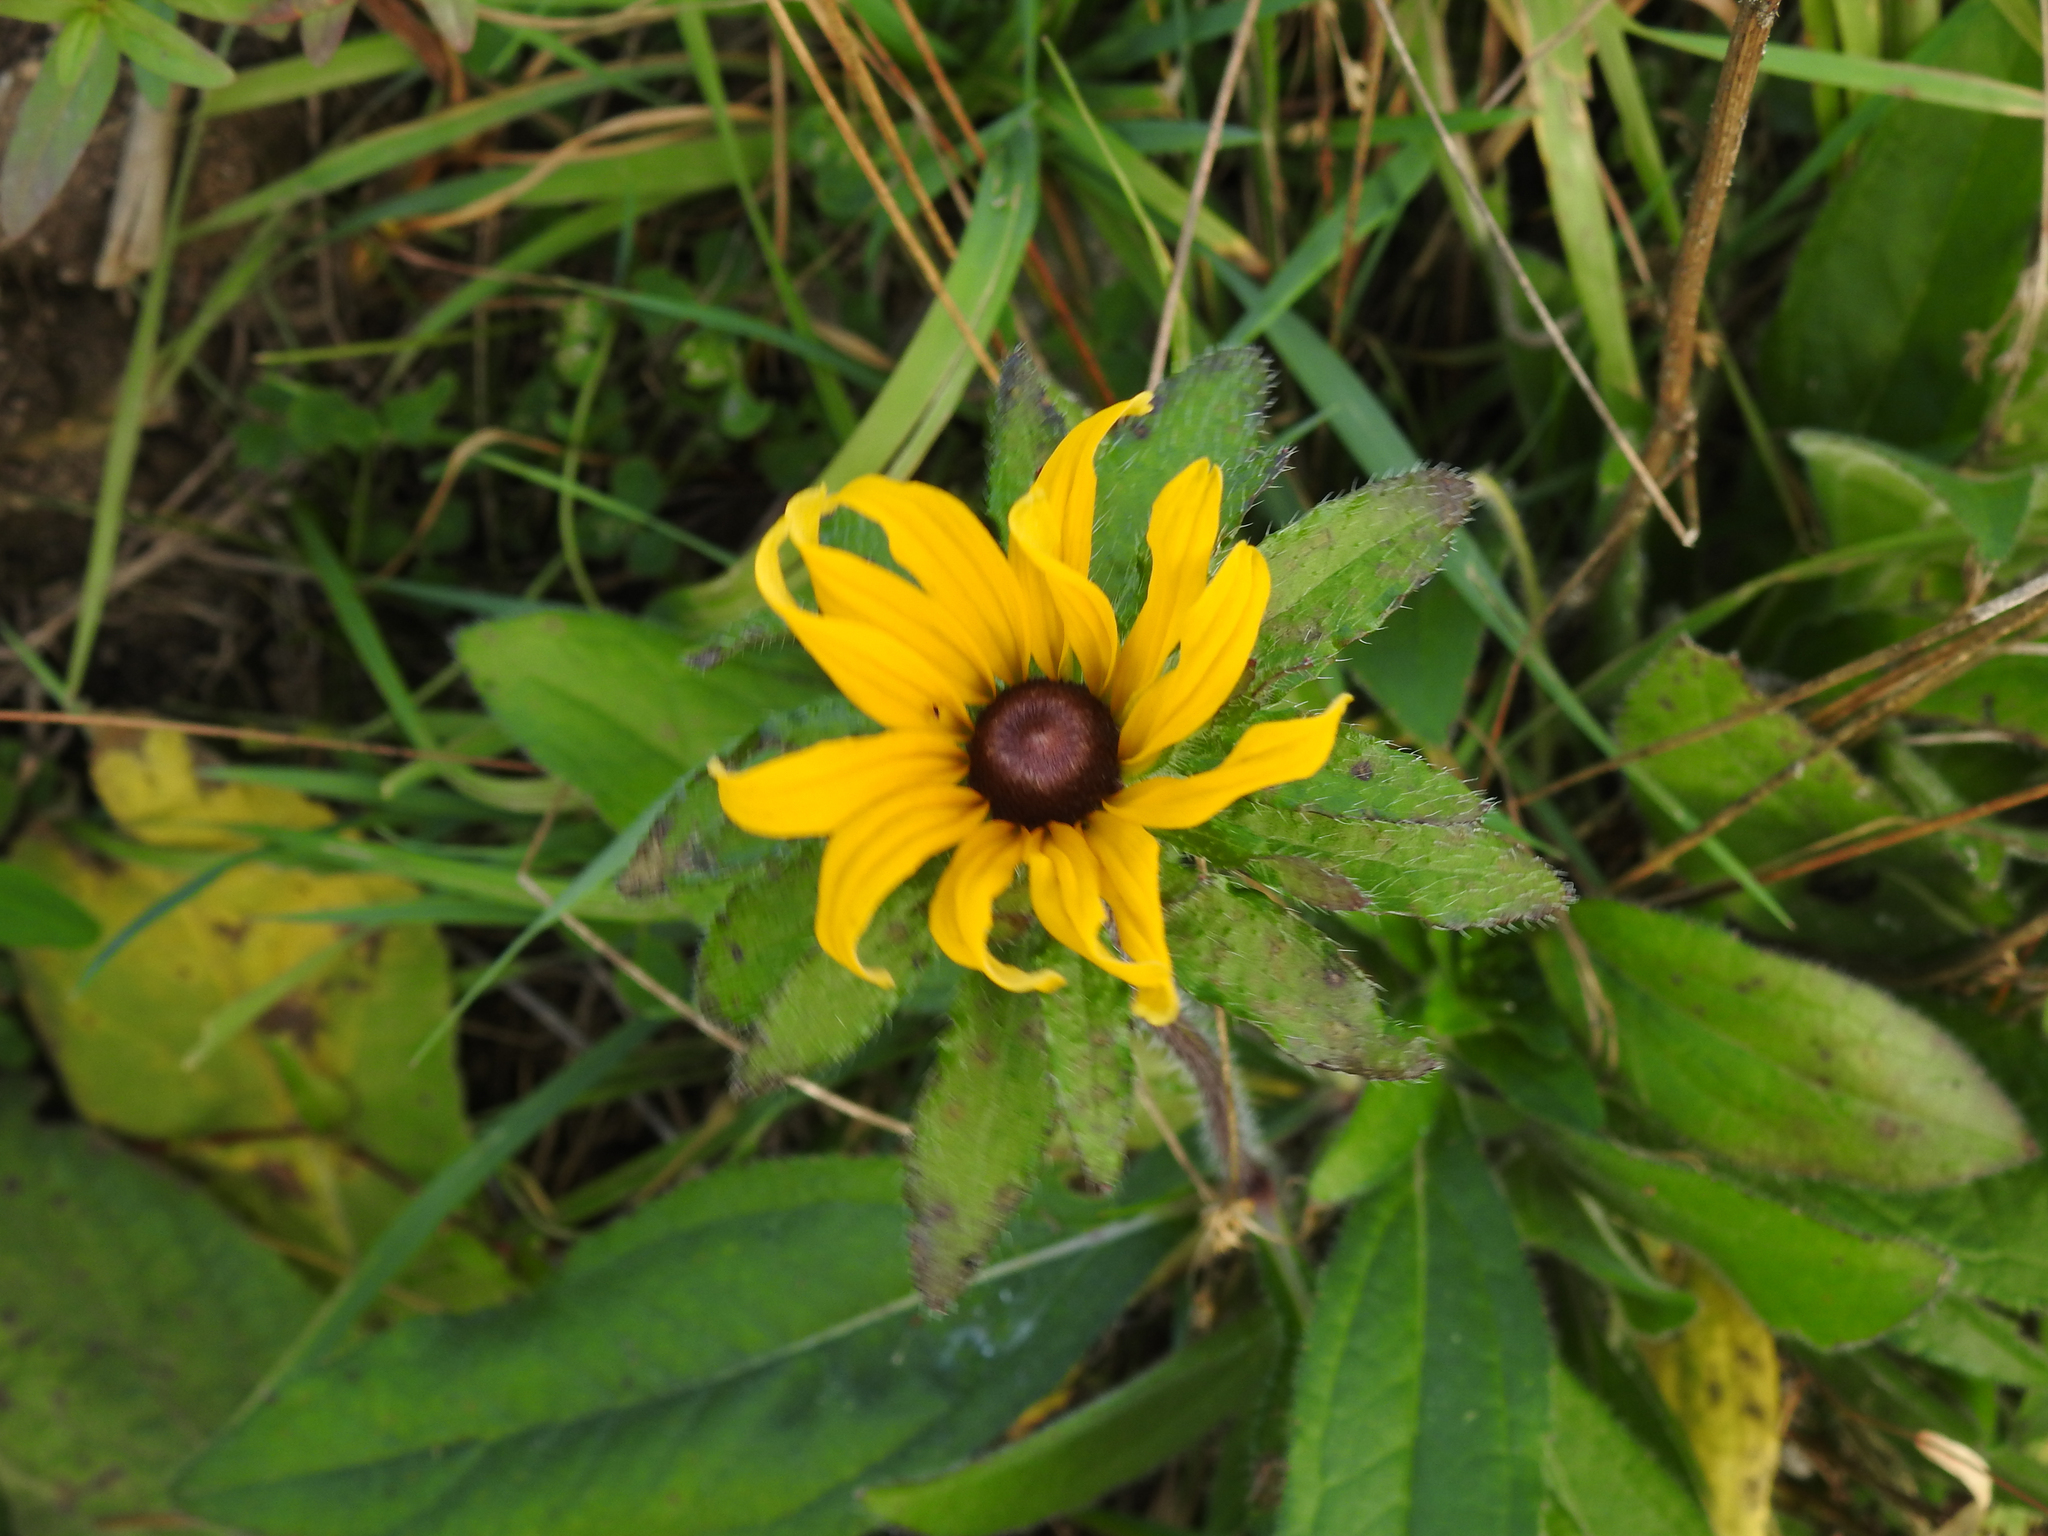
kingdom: Plantae
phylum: Tracheophyta
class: Magnoliopsida
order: Asterales
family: Asteraceae
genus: Rudbeckia
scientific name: Rudbeckia hirta
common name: Black-eyed-susan
